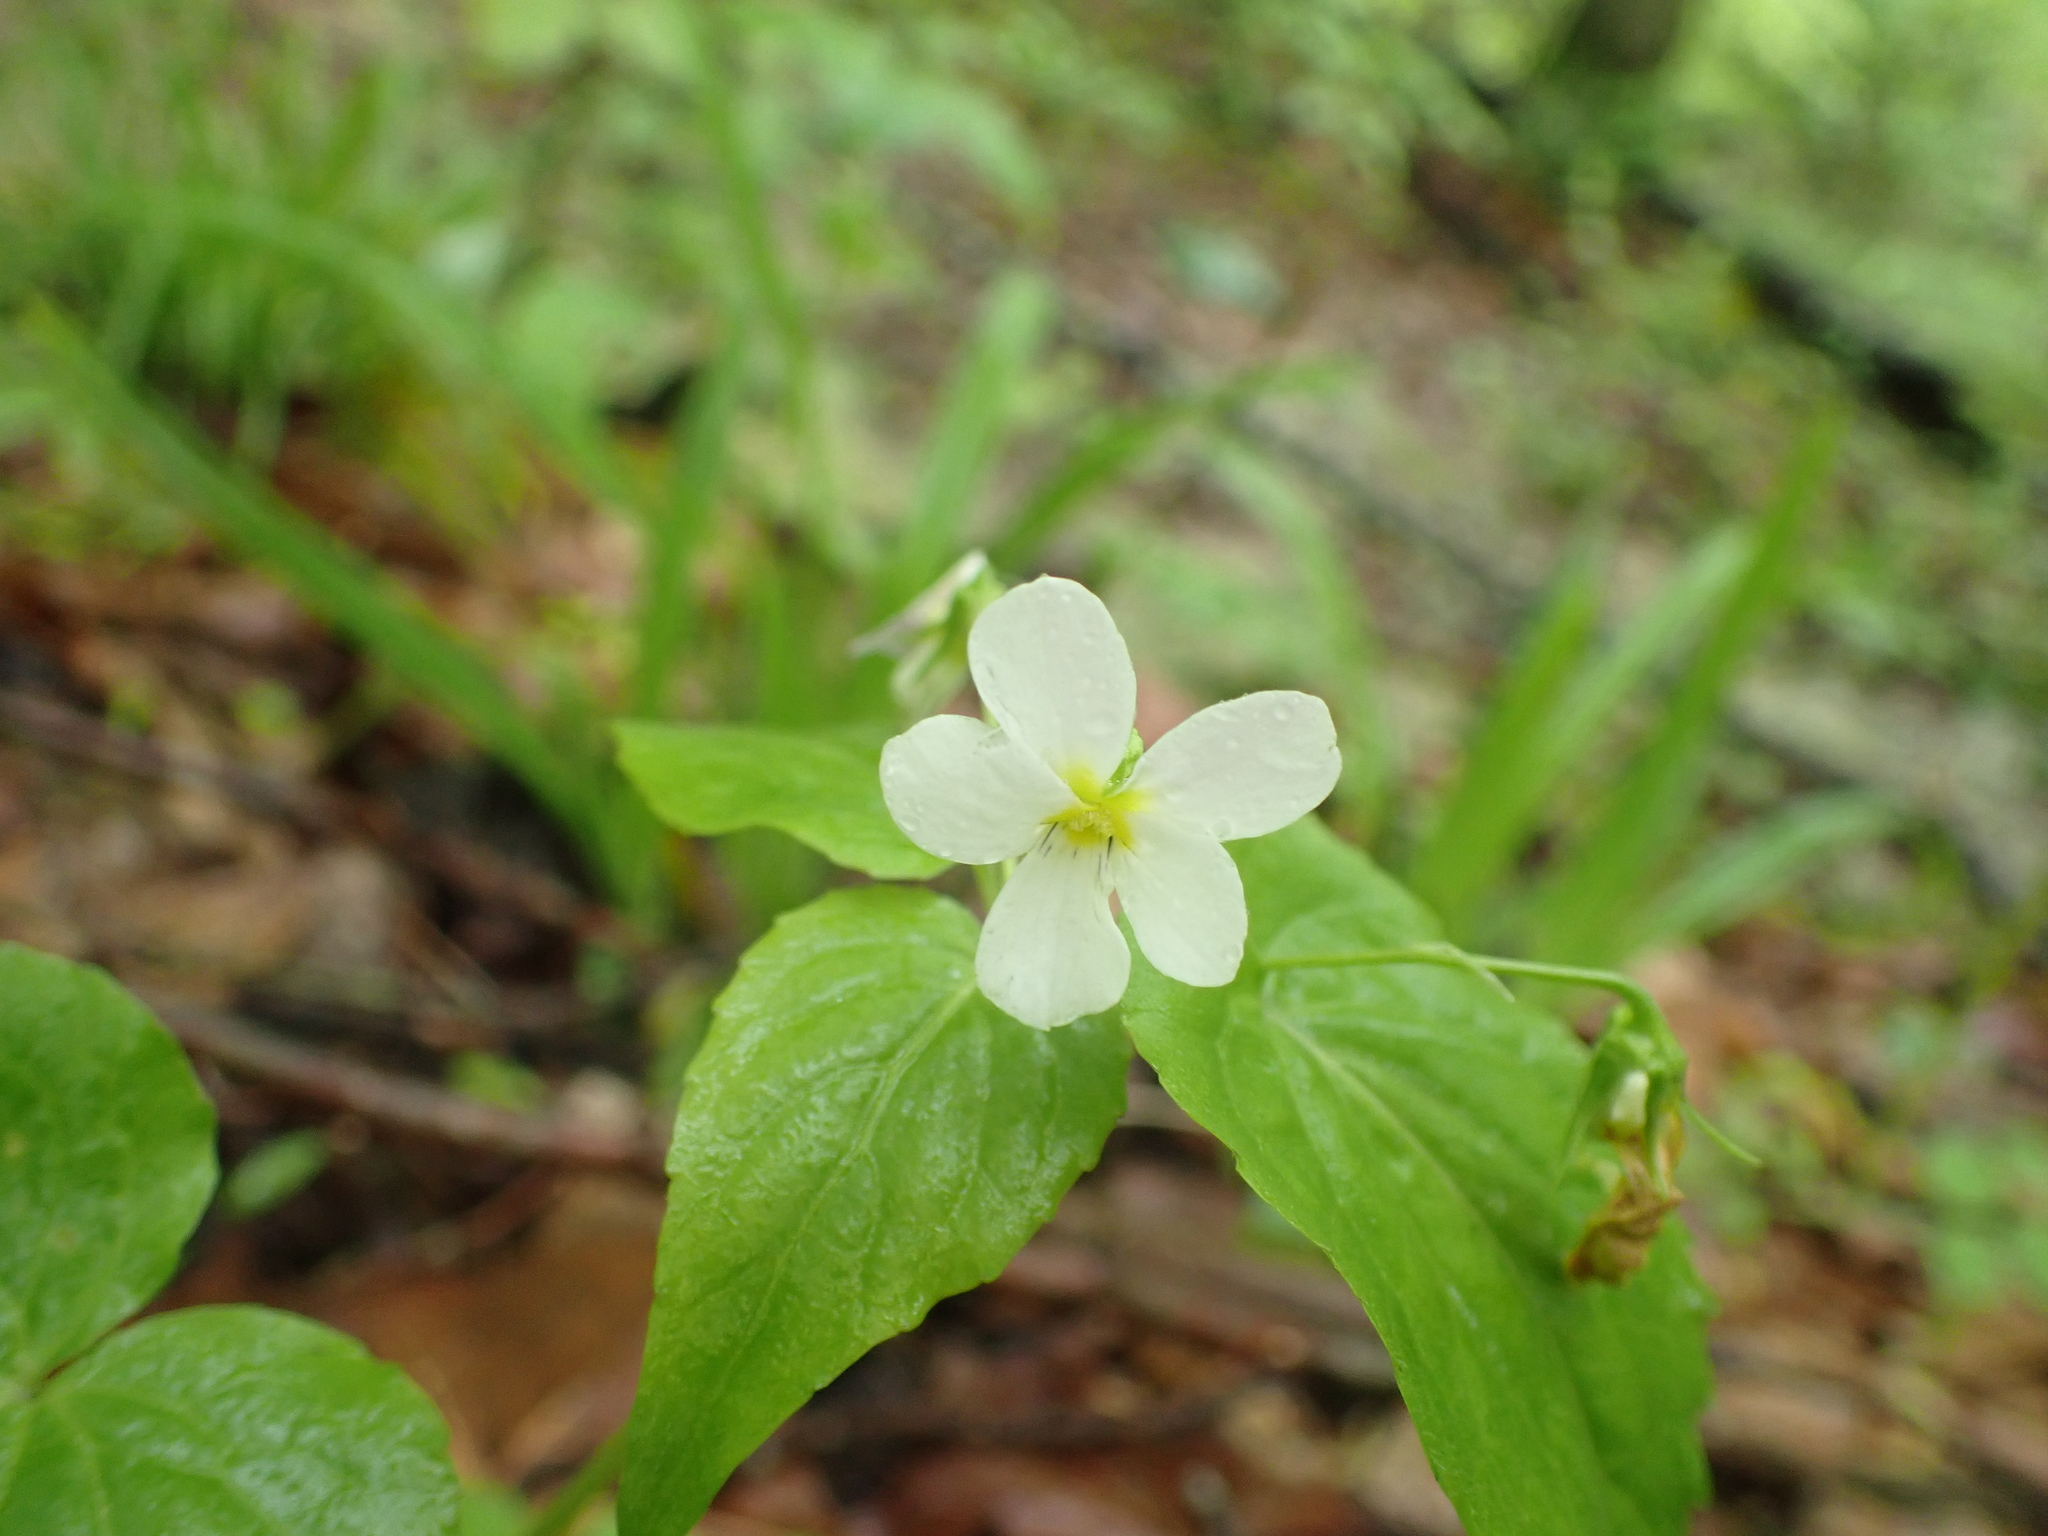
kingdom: Plantae
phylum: Tracheophyta
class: Magnoliopsida
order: Malpighiales
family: Violaceae
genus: Viola
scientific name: Viola canadensis
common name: Canada violet
